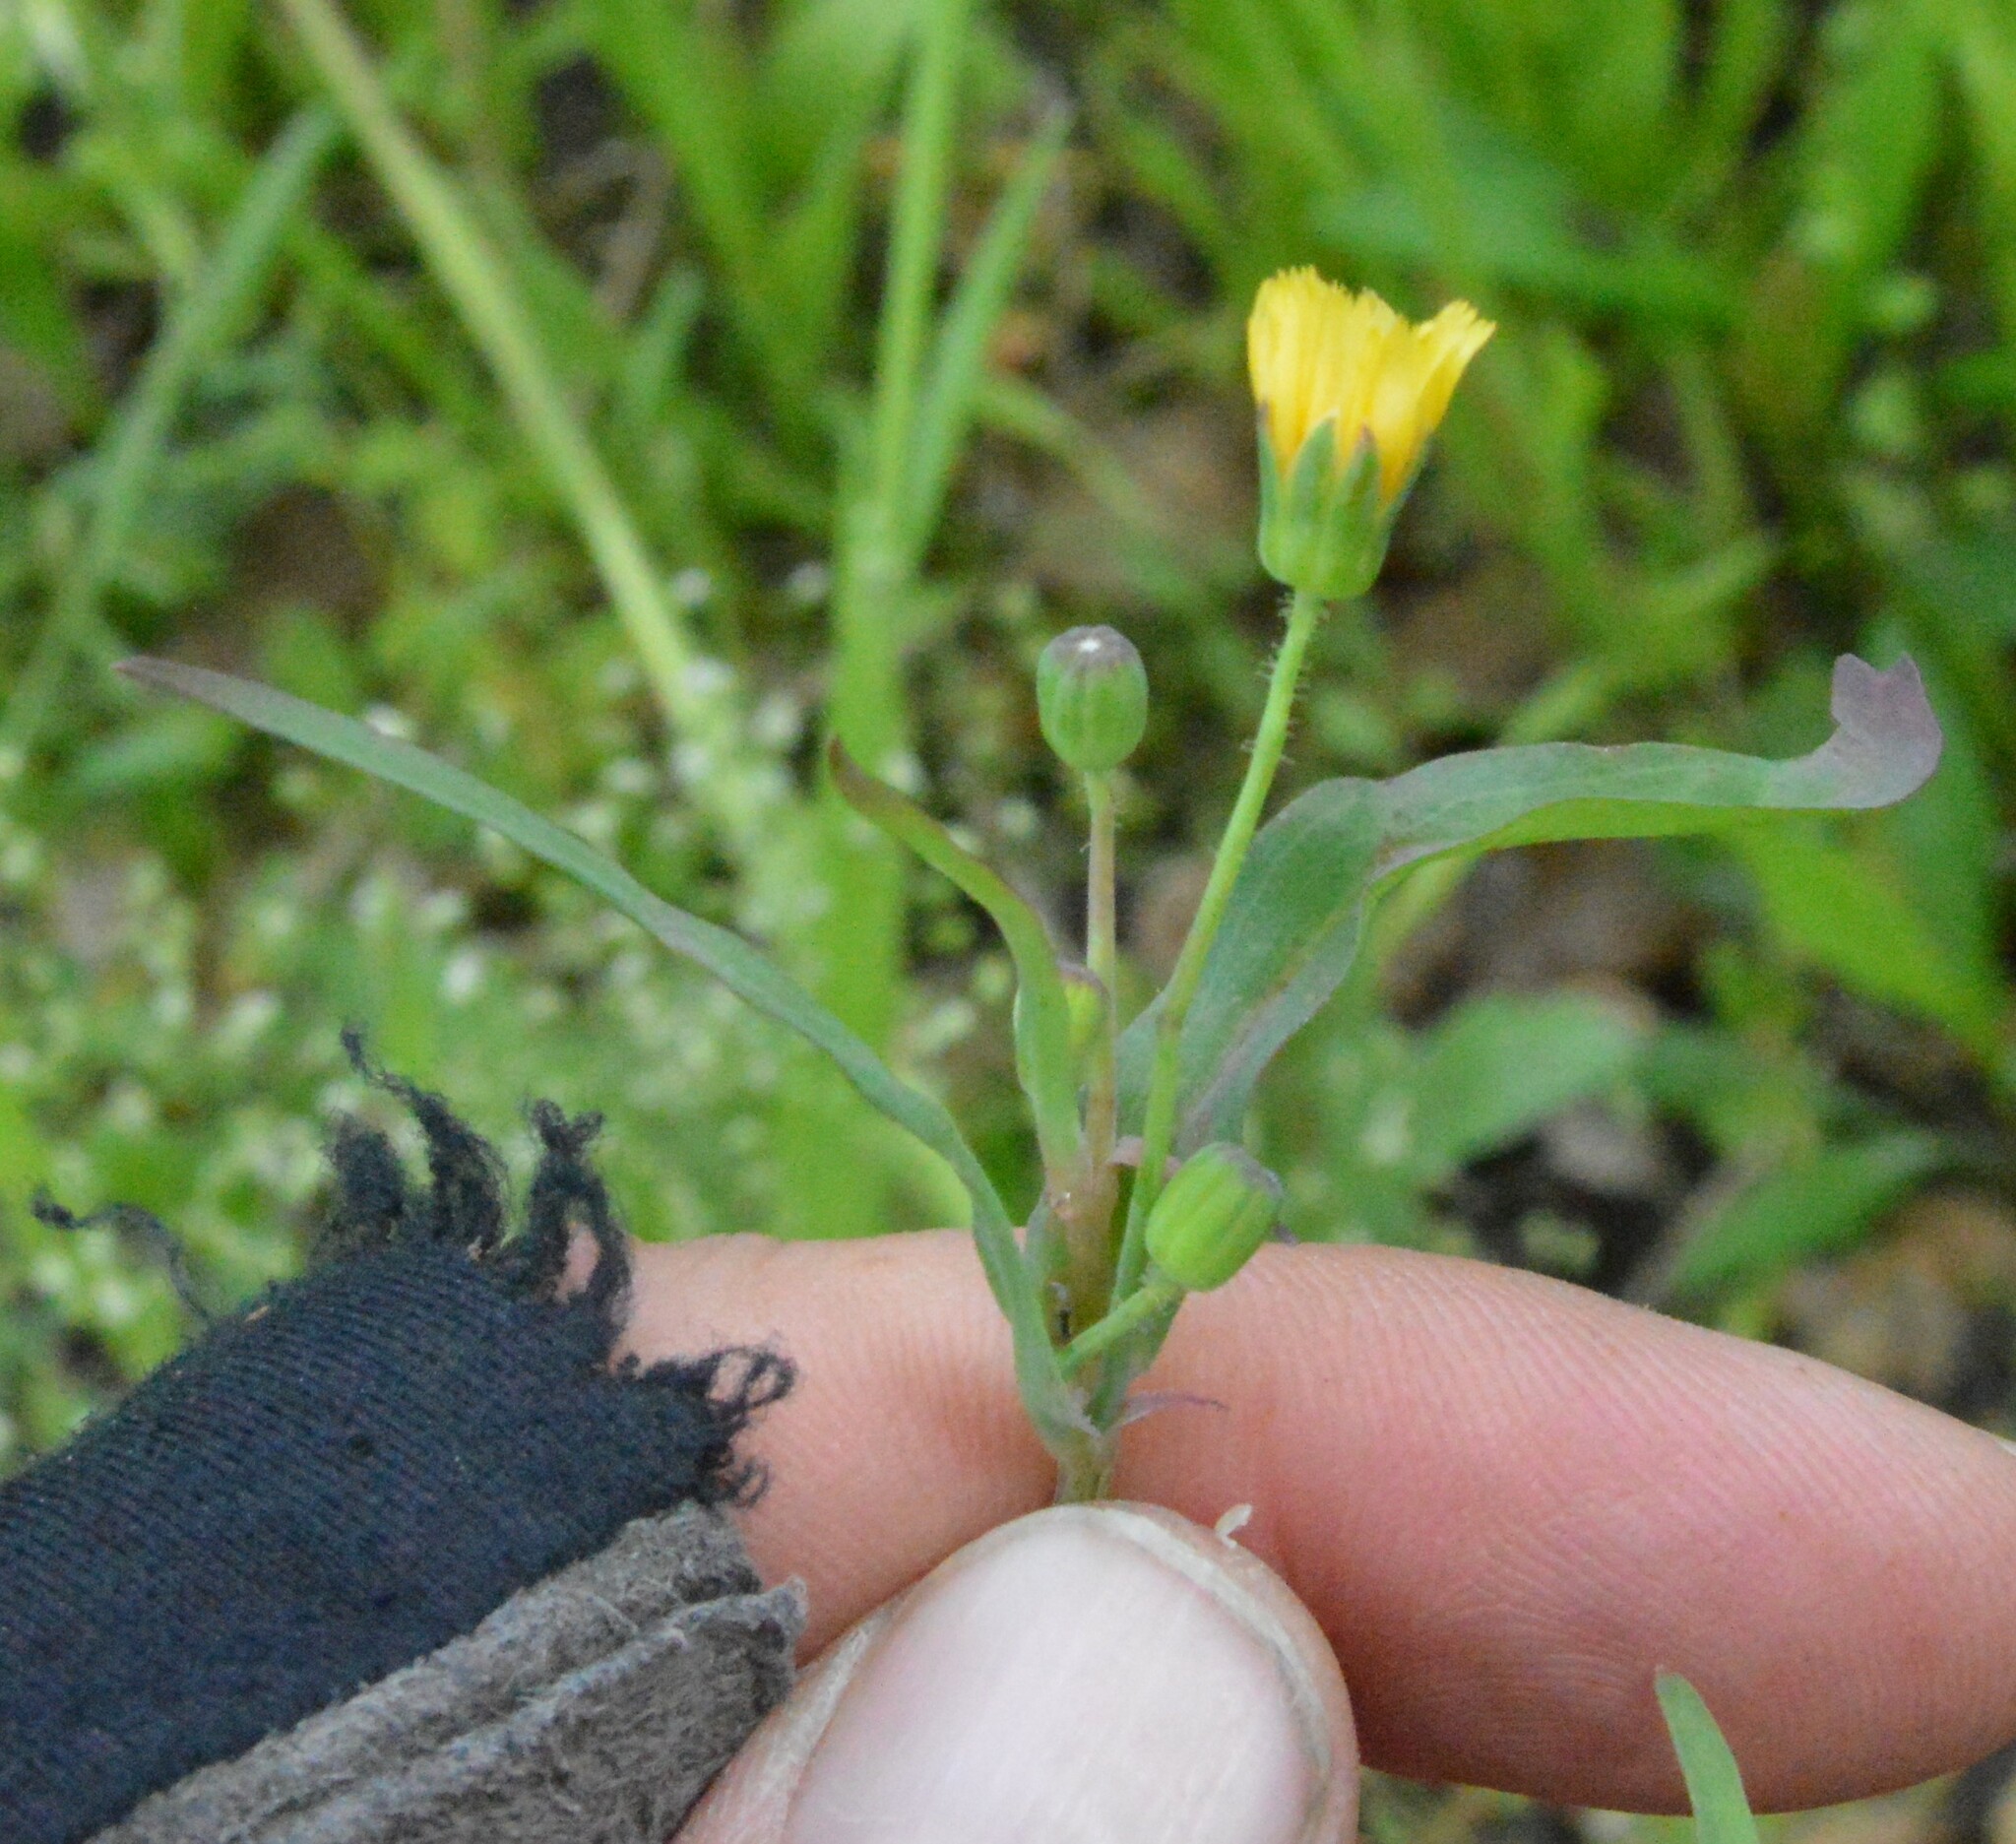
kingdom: Plantae
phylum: Tracheophyta
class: Magnoliopsida
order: Asterales
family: Asteraceae
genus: Krigia
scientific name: Krigia cespitosa
